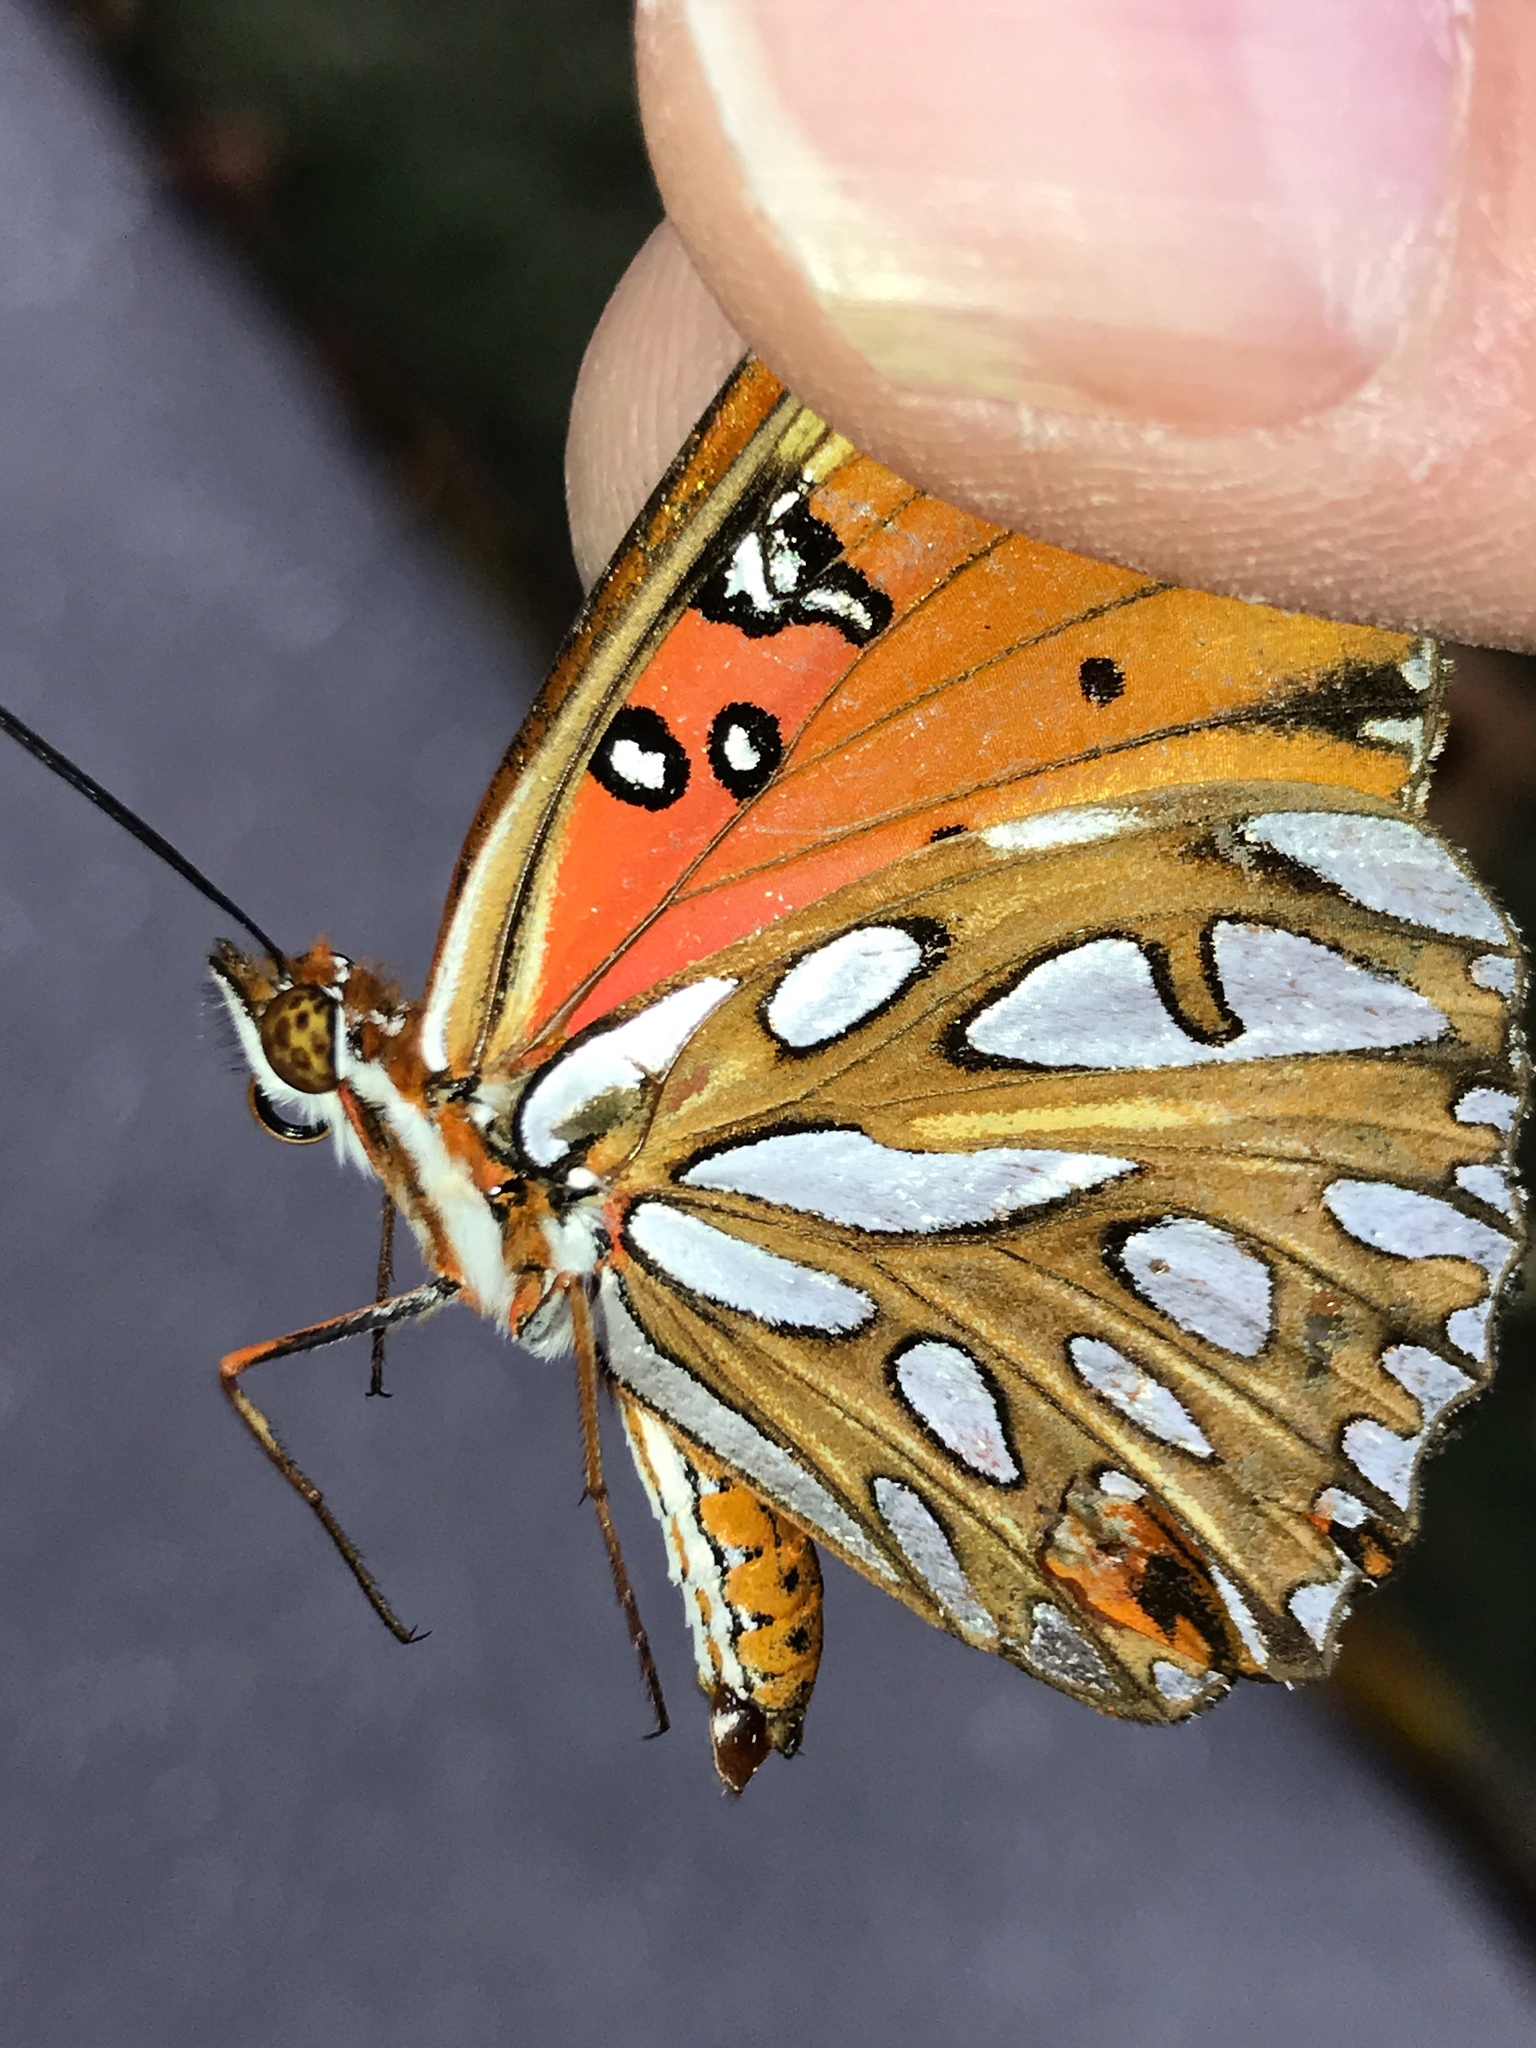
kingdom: Animalia
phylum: Arthropoda
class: Insecta
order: Lepidoptera
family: Nymphalidae
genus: Dione
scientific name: Dione vanillae
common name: Gulf fritillary
